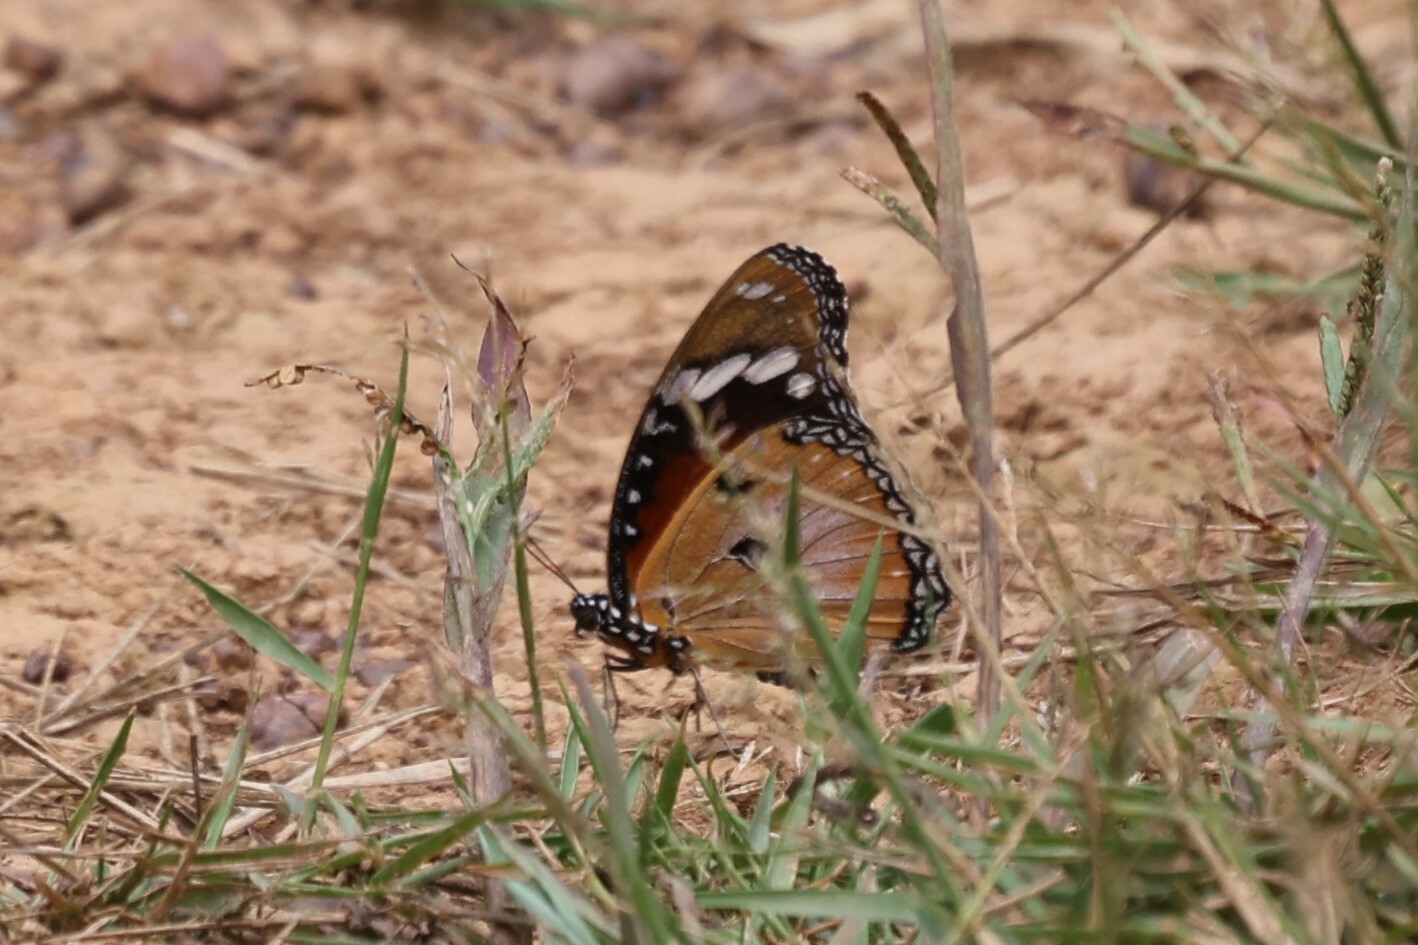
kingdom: Animalia
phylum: Arthropoda
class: Insecta
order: Lepidoptera
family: Nymphalidae
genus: Hypolimnas
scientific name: Hypolimnas misippus
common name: False plain tiger
